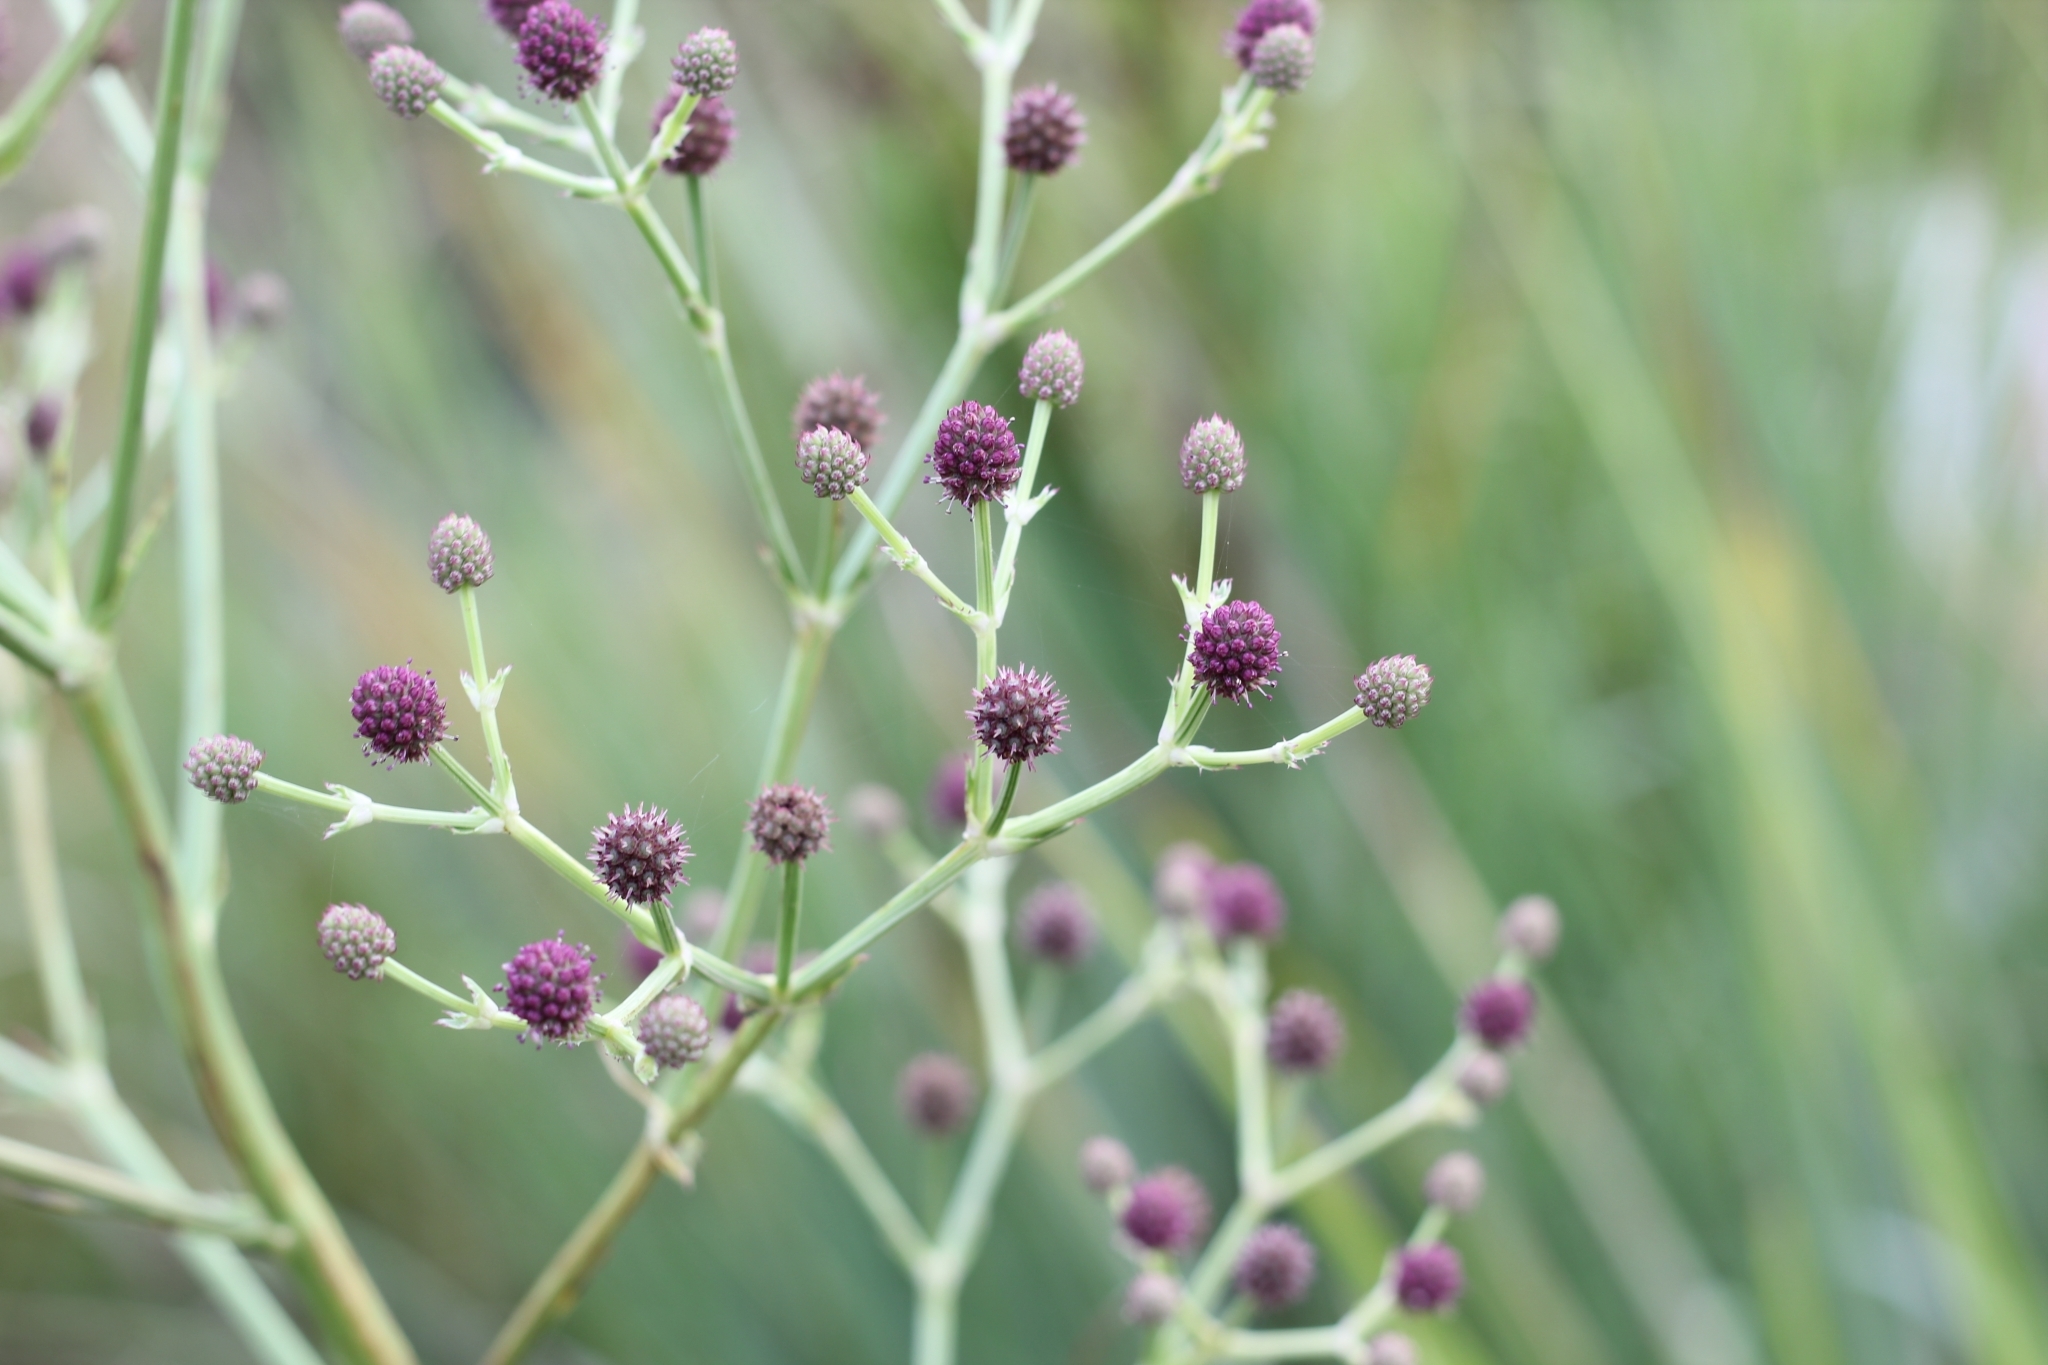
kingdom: Plantae
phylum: Tracheophyta
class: Magnoliopsida
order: Apiales
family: Apiaceae
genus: Eryngium
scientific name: Eryngium pandanifolium
